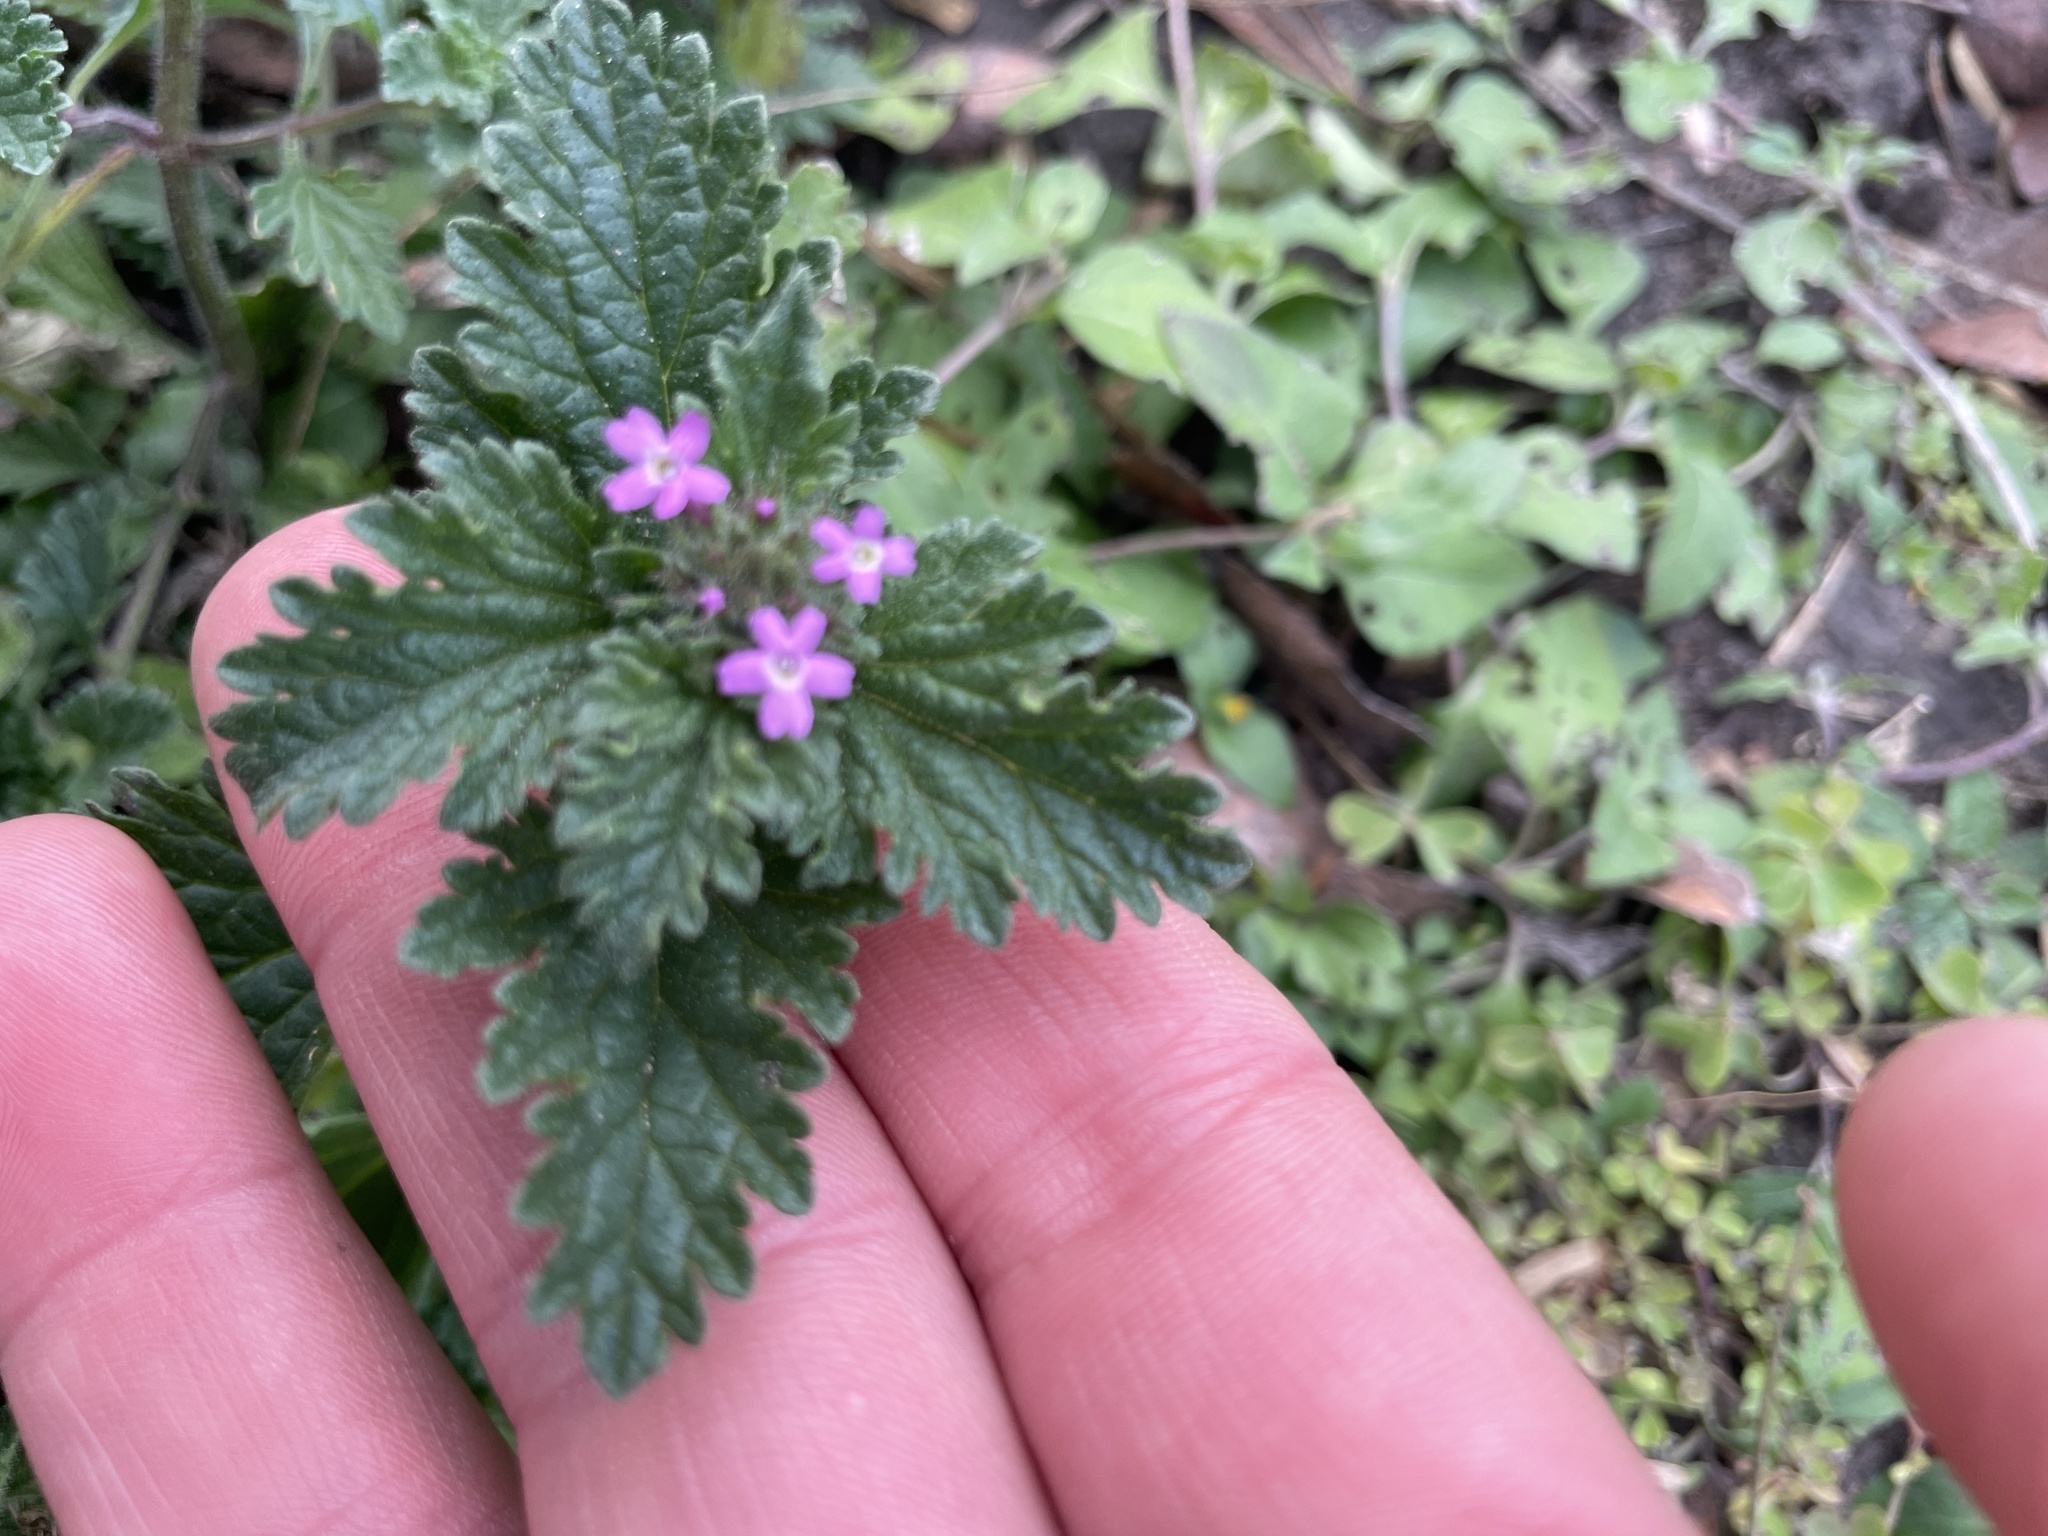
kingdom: Plantae
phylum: Tracheophyta
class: Magnoliopsida
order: Lamiales
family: Verbenaceae
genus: Verbena
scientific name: Verbena pumila
